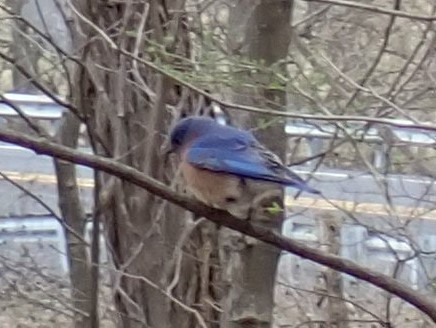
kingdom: Animalia
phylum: Chordata
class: Aves
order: Passeriformes
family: Turdidae
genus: Sialia
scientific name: Sialia sialis
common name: Eastern bluebird
